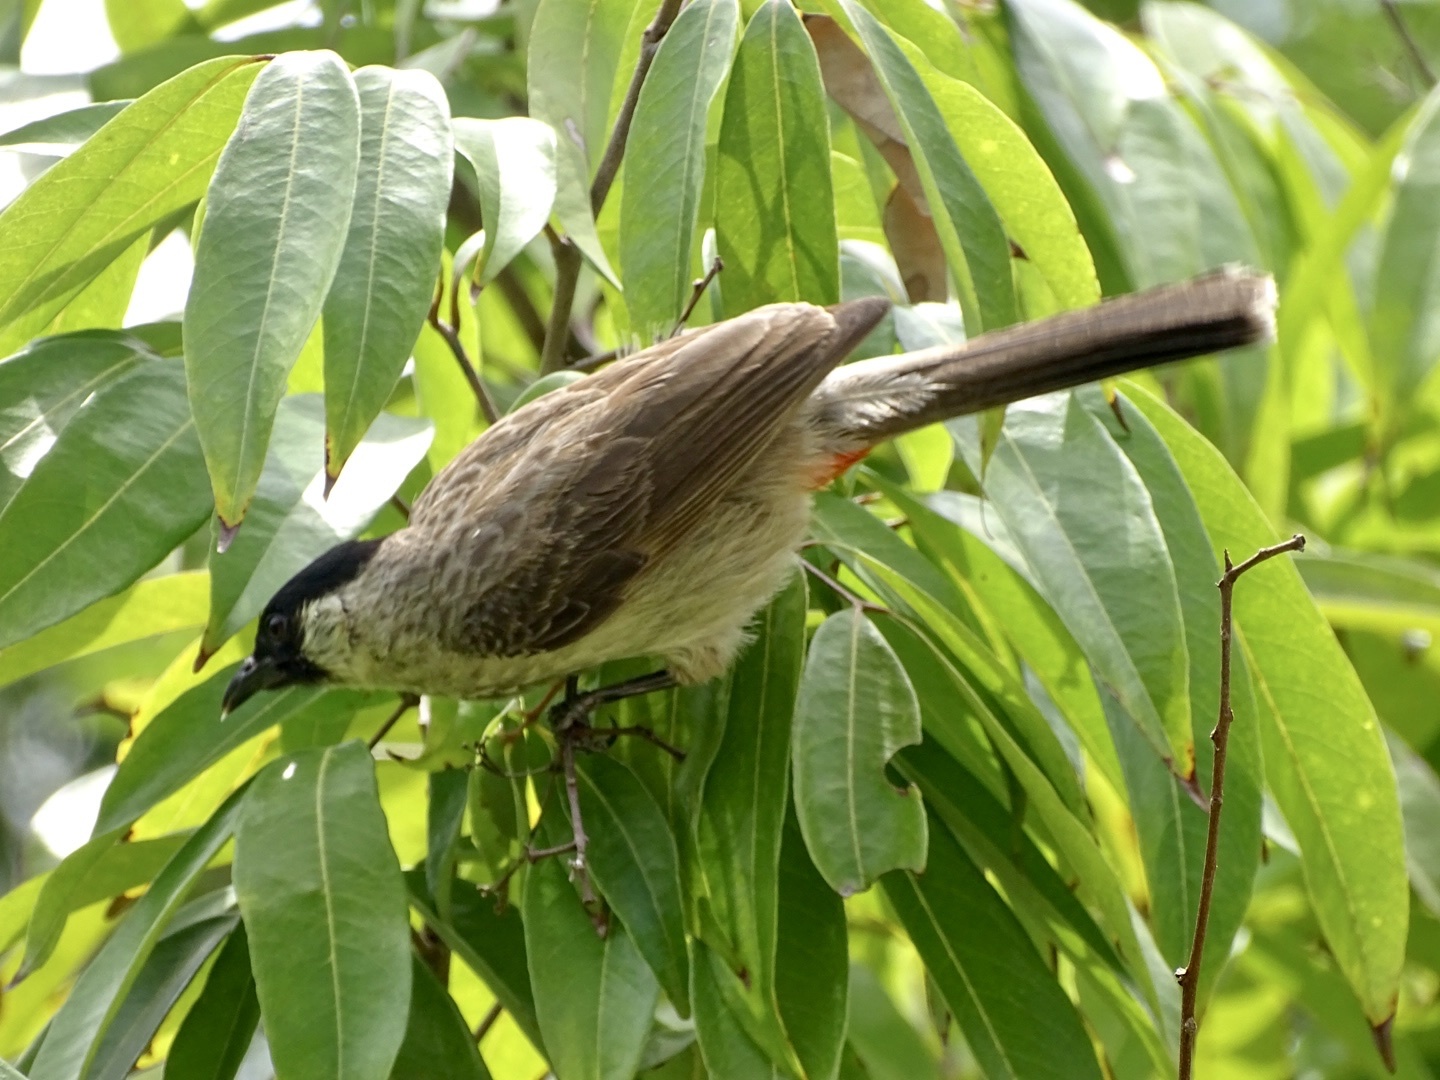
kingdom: Animalia
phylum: Chordata
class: Aves
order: Passeriformes
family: Pycnonotidae
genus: Pycnonotus
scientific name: Pycnonotus aurigaster
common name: Sooty-headed bulbul
